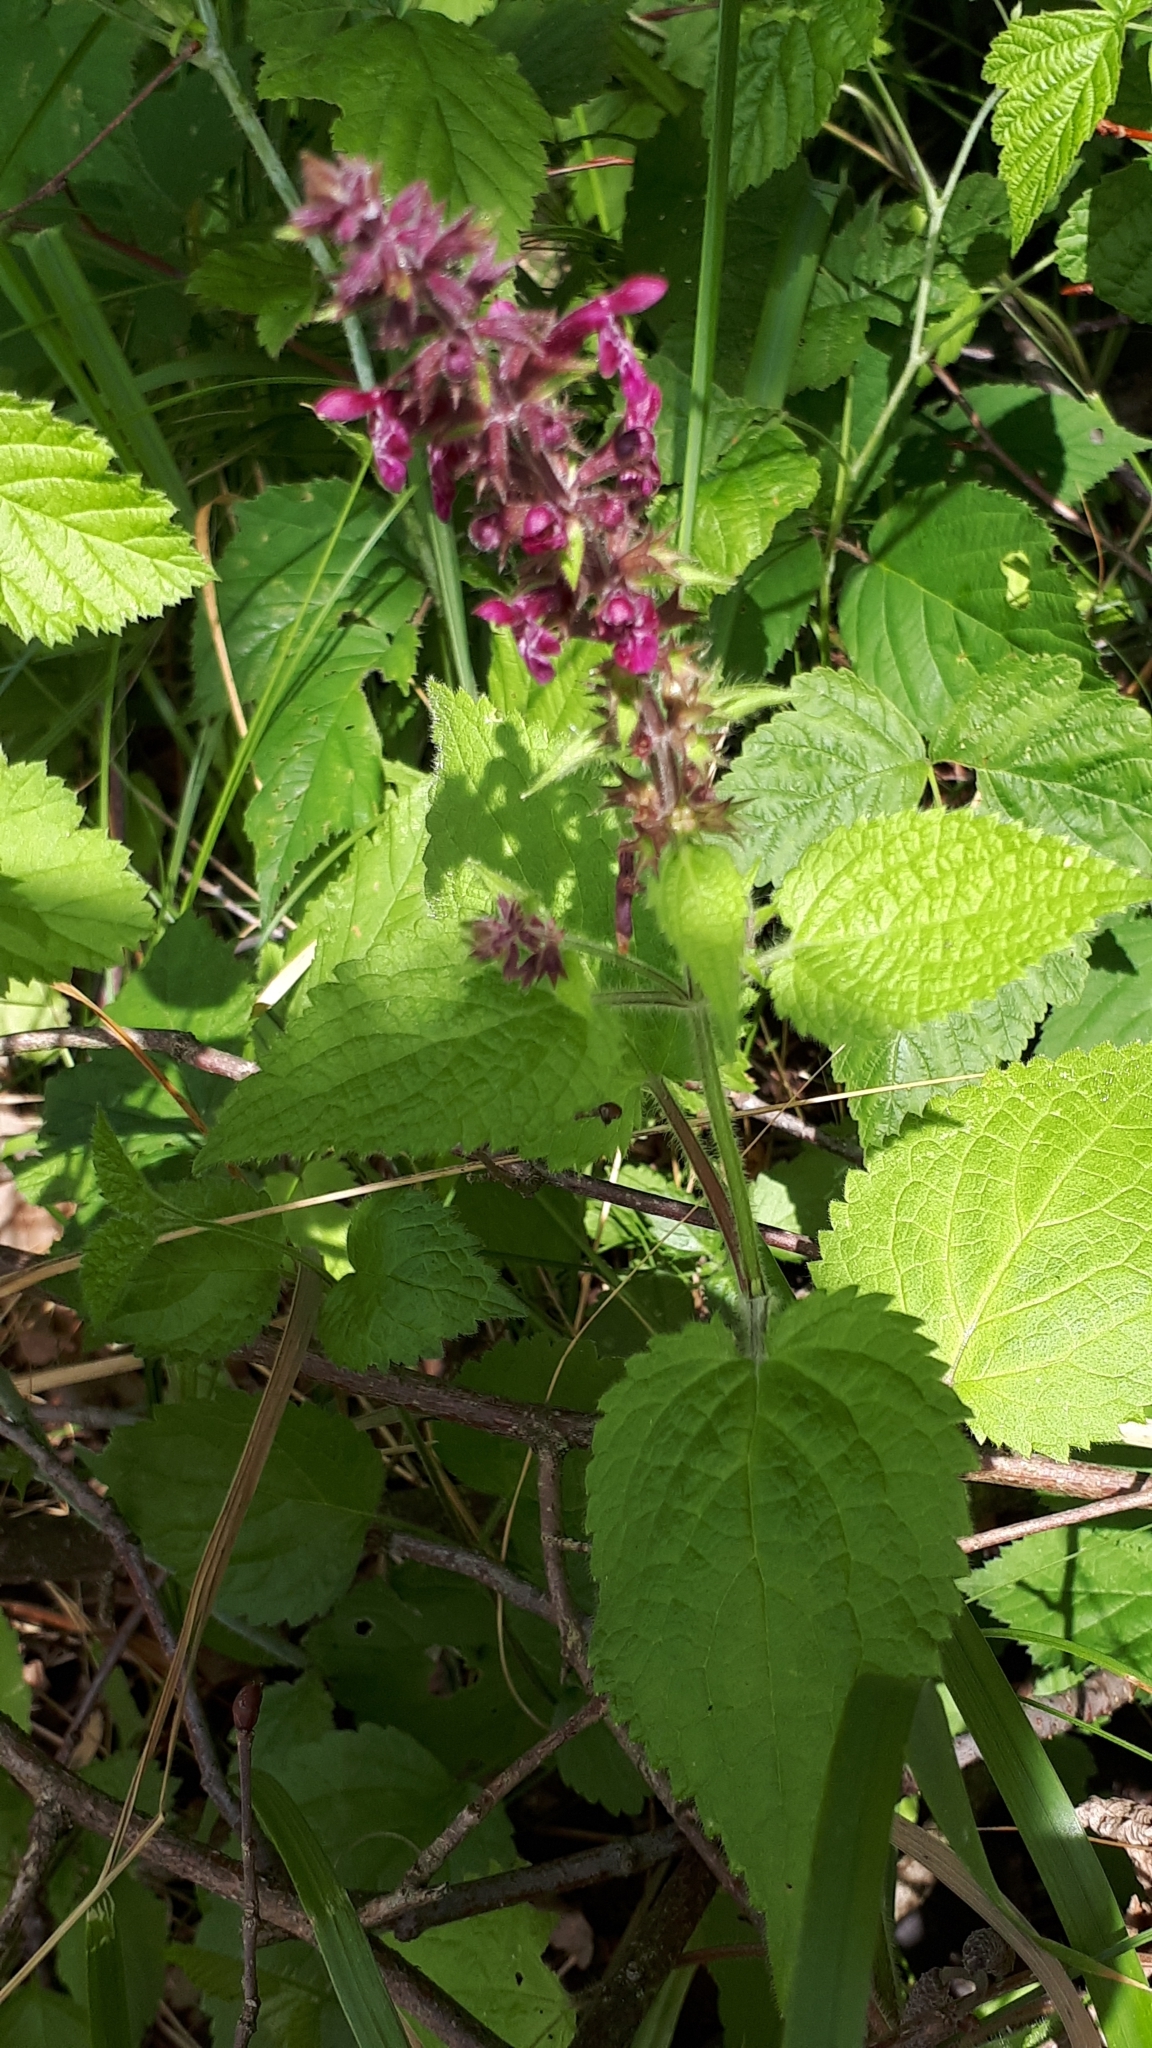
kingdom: Plantae
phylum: Tracheophyta
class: Magnoliopsida
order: Lamiales
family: Lamiaceae
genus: Stachys
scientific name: Stachys sylvatica
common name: Hedge woundwort
